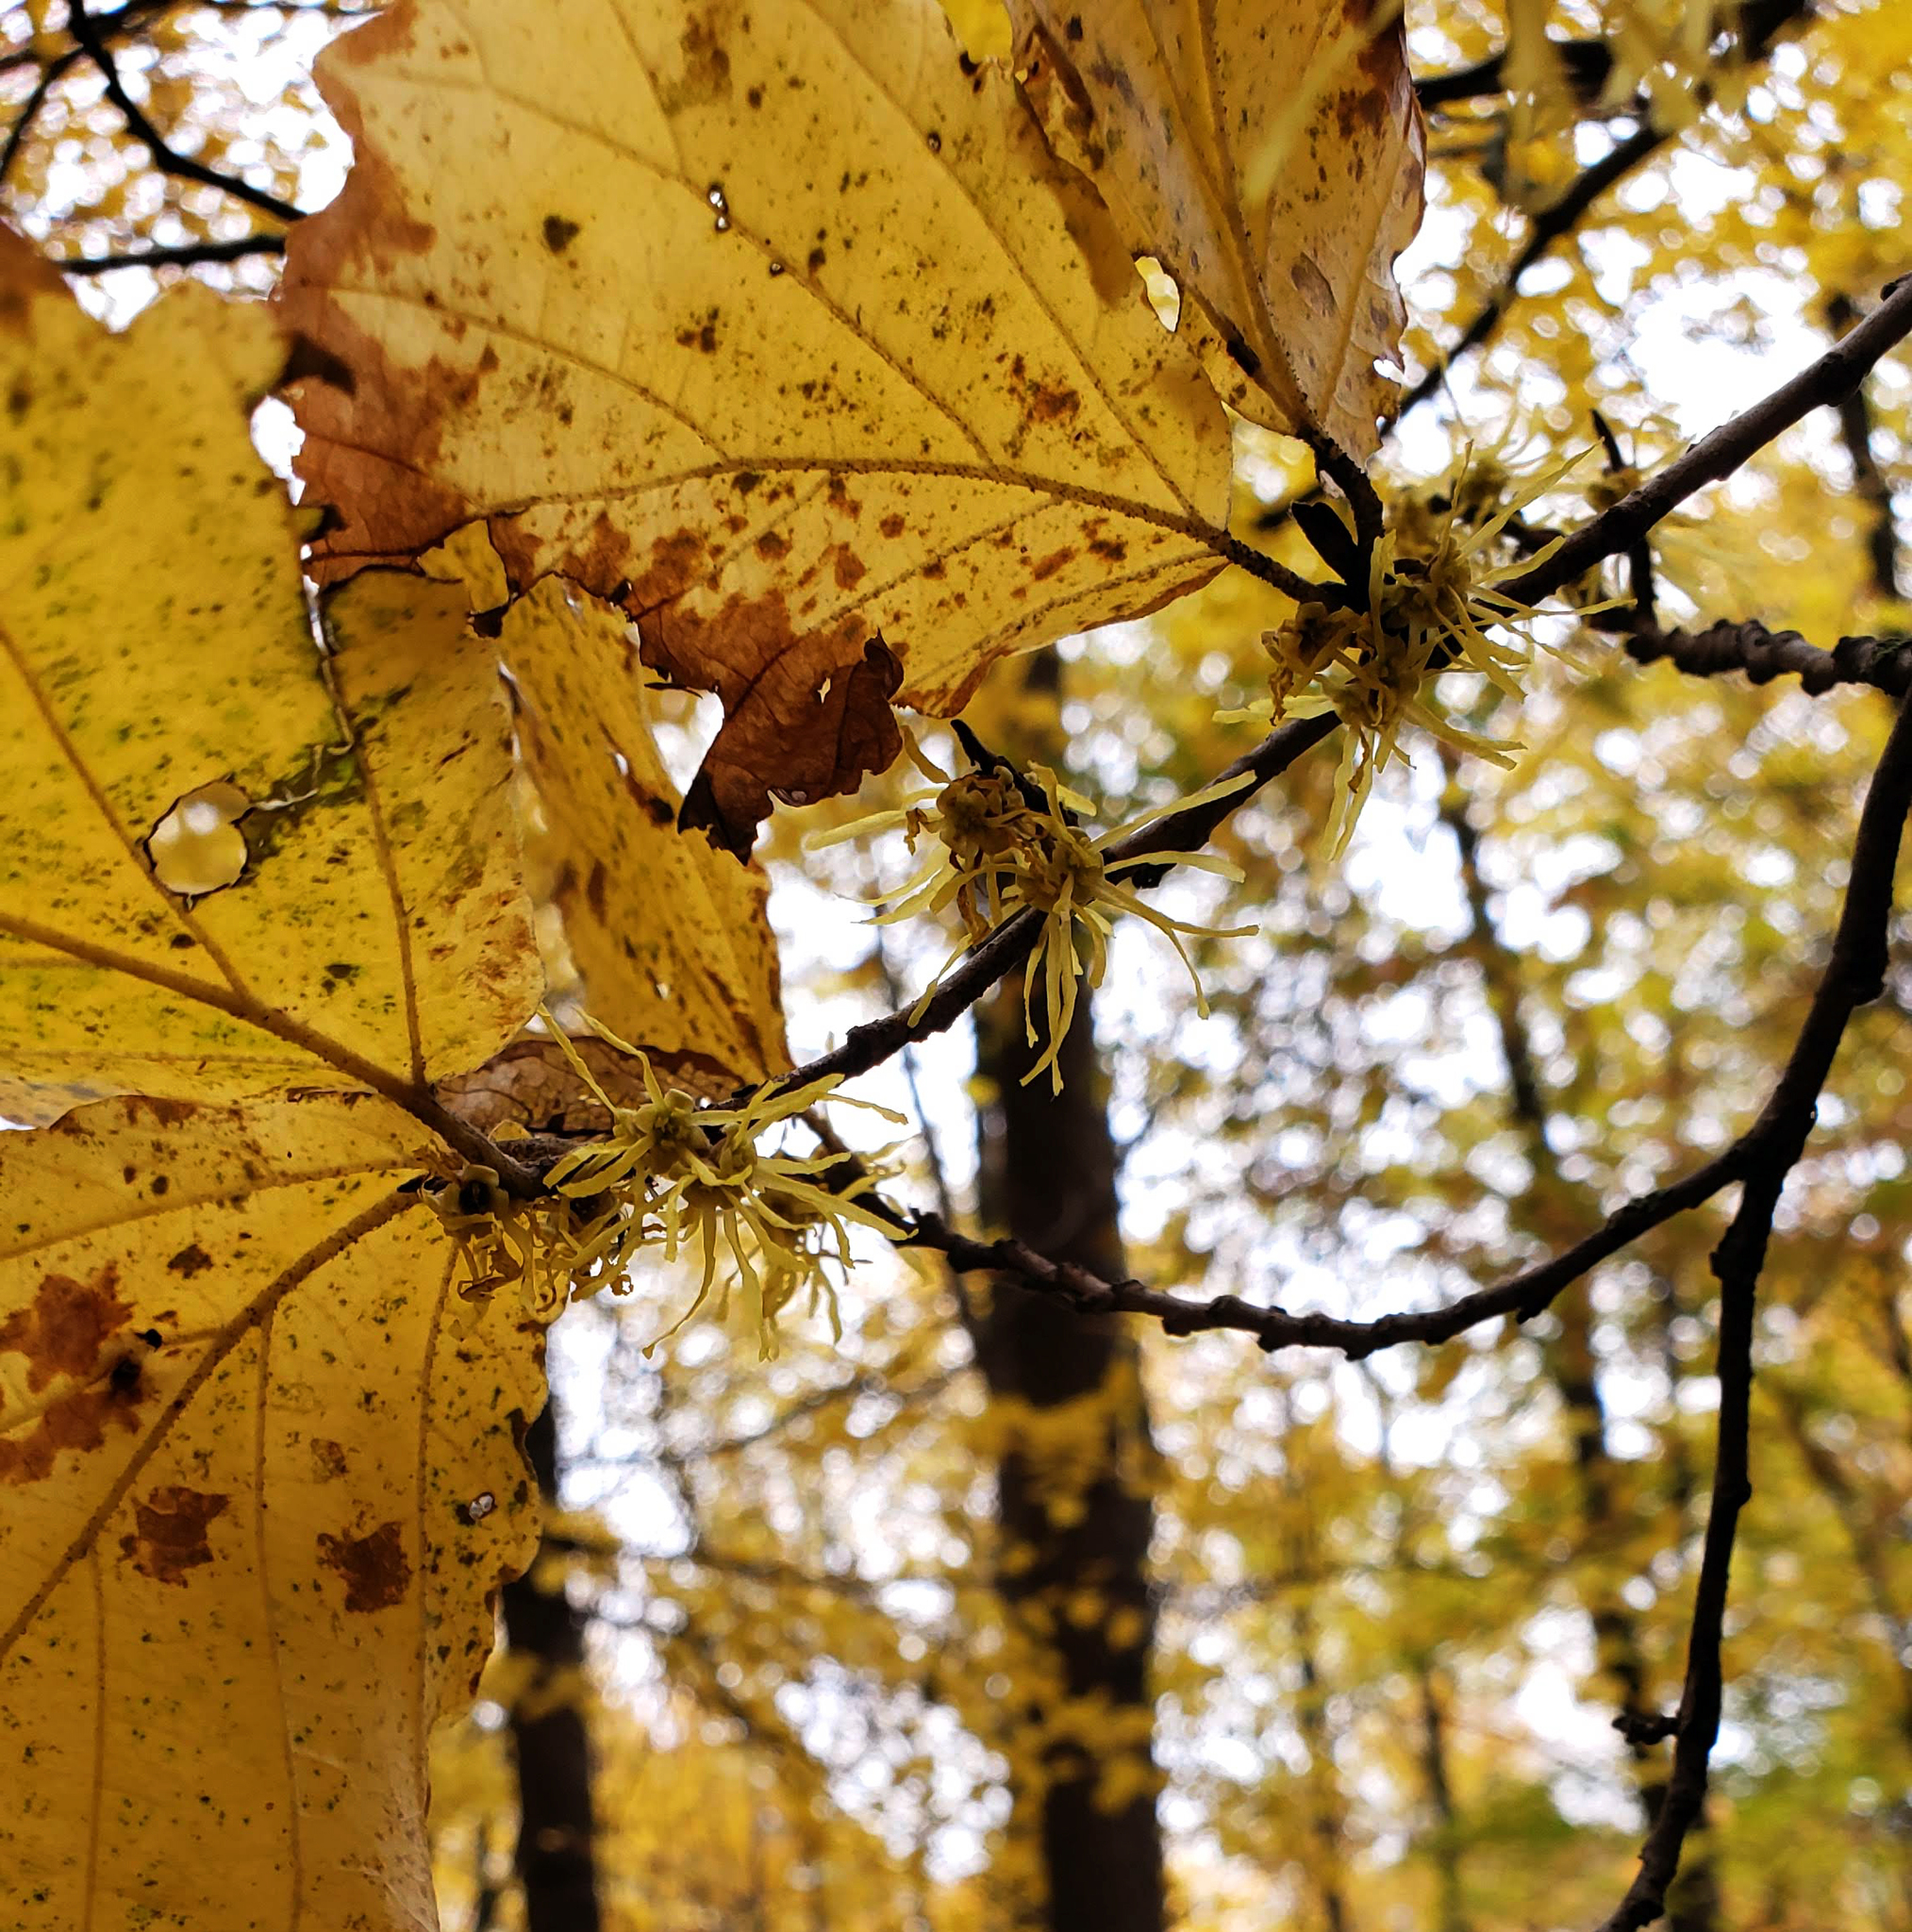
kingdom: Plantae
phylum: Tracheophyta
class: Magnoliopsida
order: Saxifragales
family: Hamamelidaceae
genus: Hamamelis
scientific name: Hamamelis virginiana
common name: Witch-hazel
